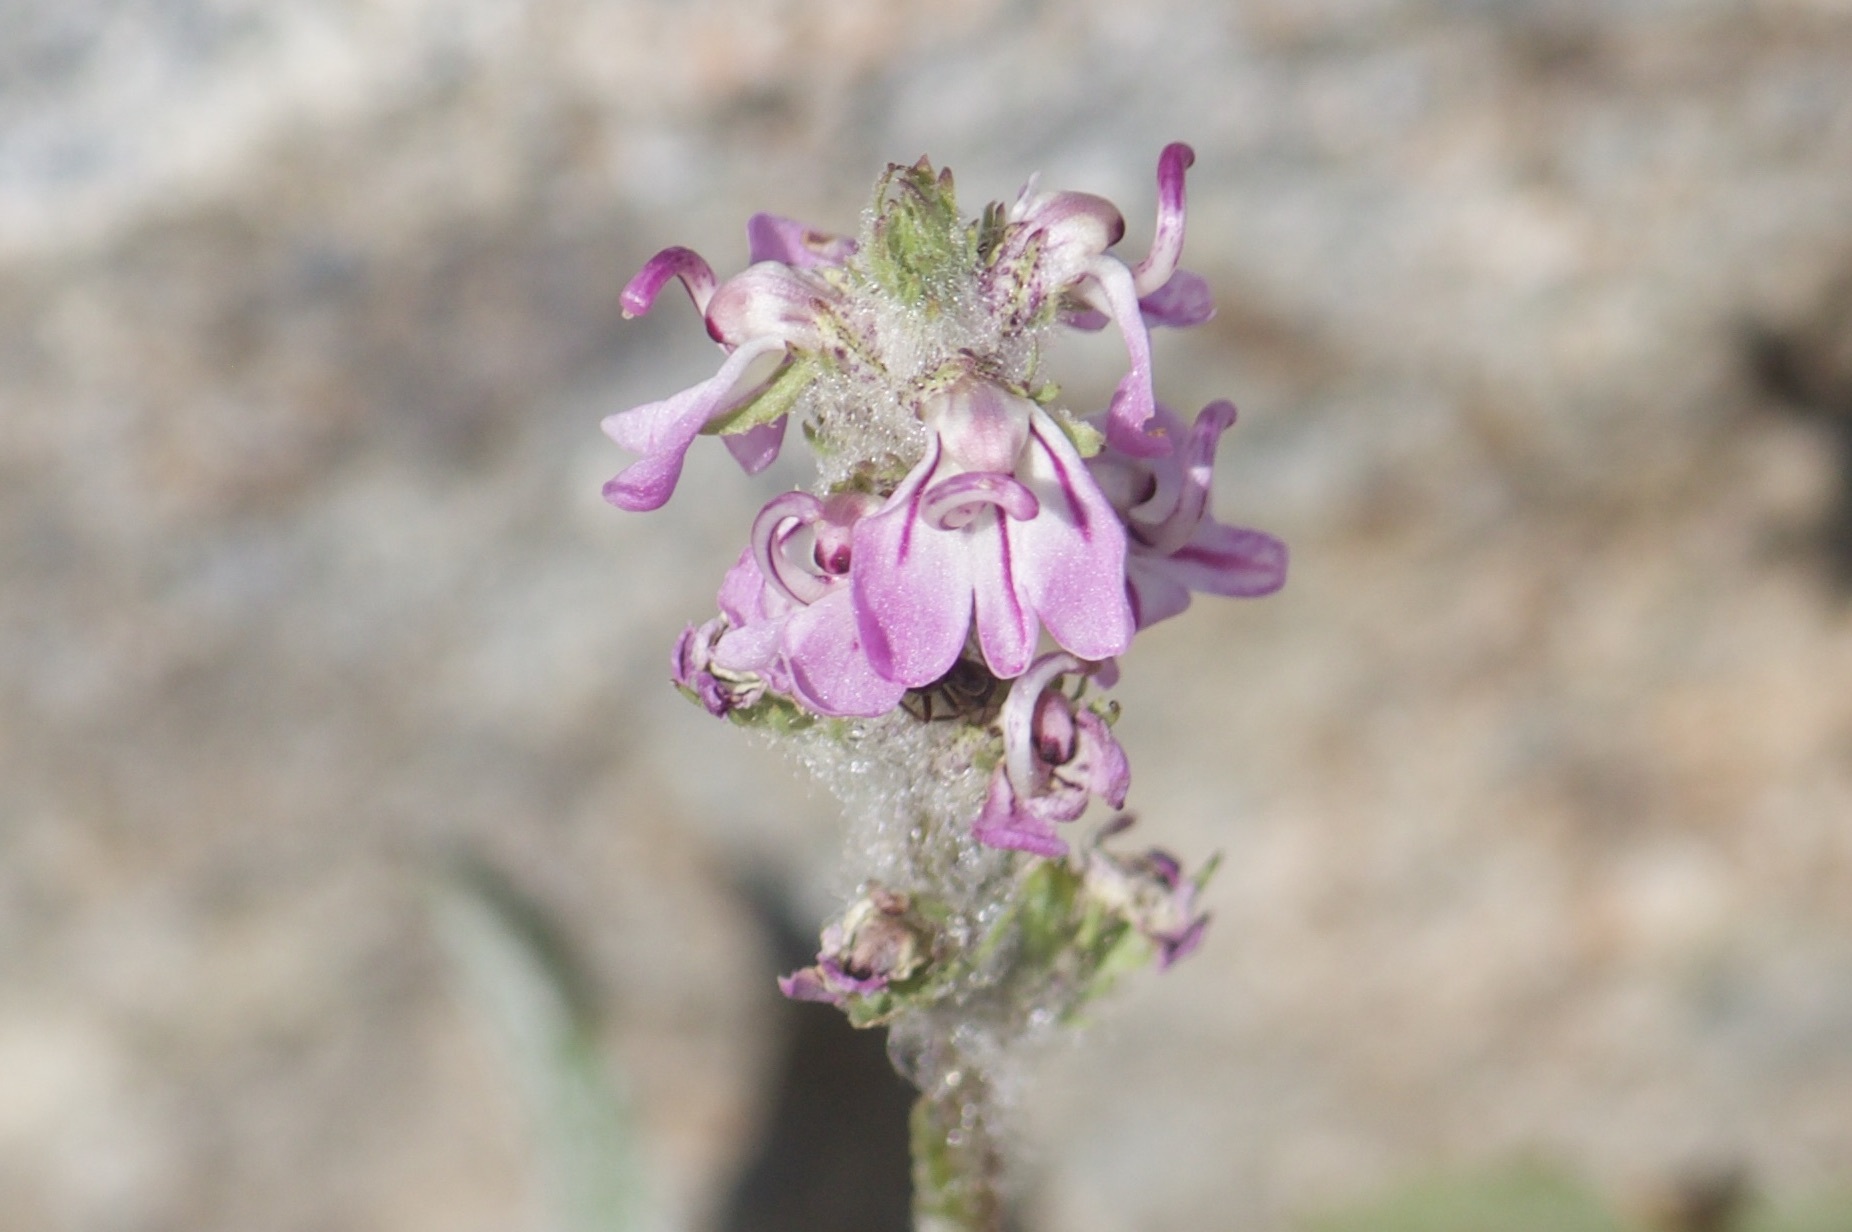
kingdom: Plantae
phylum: Tracheophyta
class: Magnoliopsida
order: Lamiales
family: Orobanchaceae
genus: Pedicularis
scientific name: Pedicularis attollens
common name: Slender pedicularis
